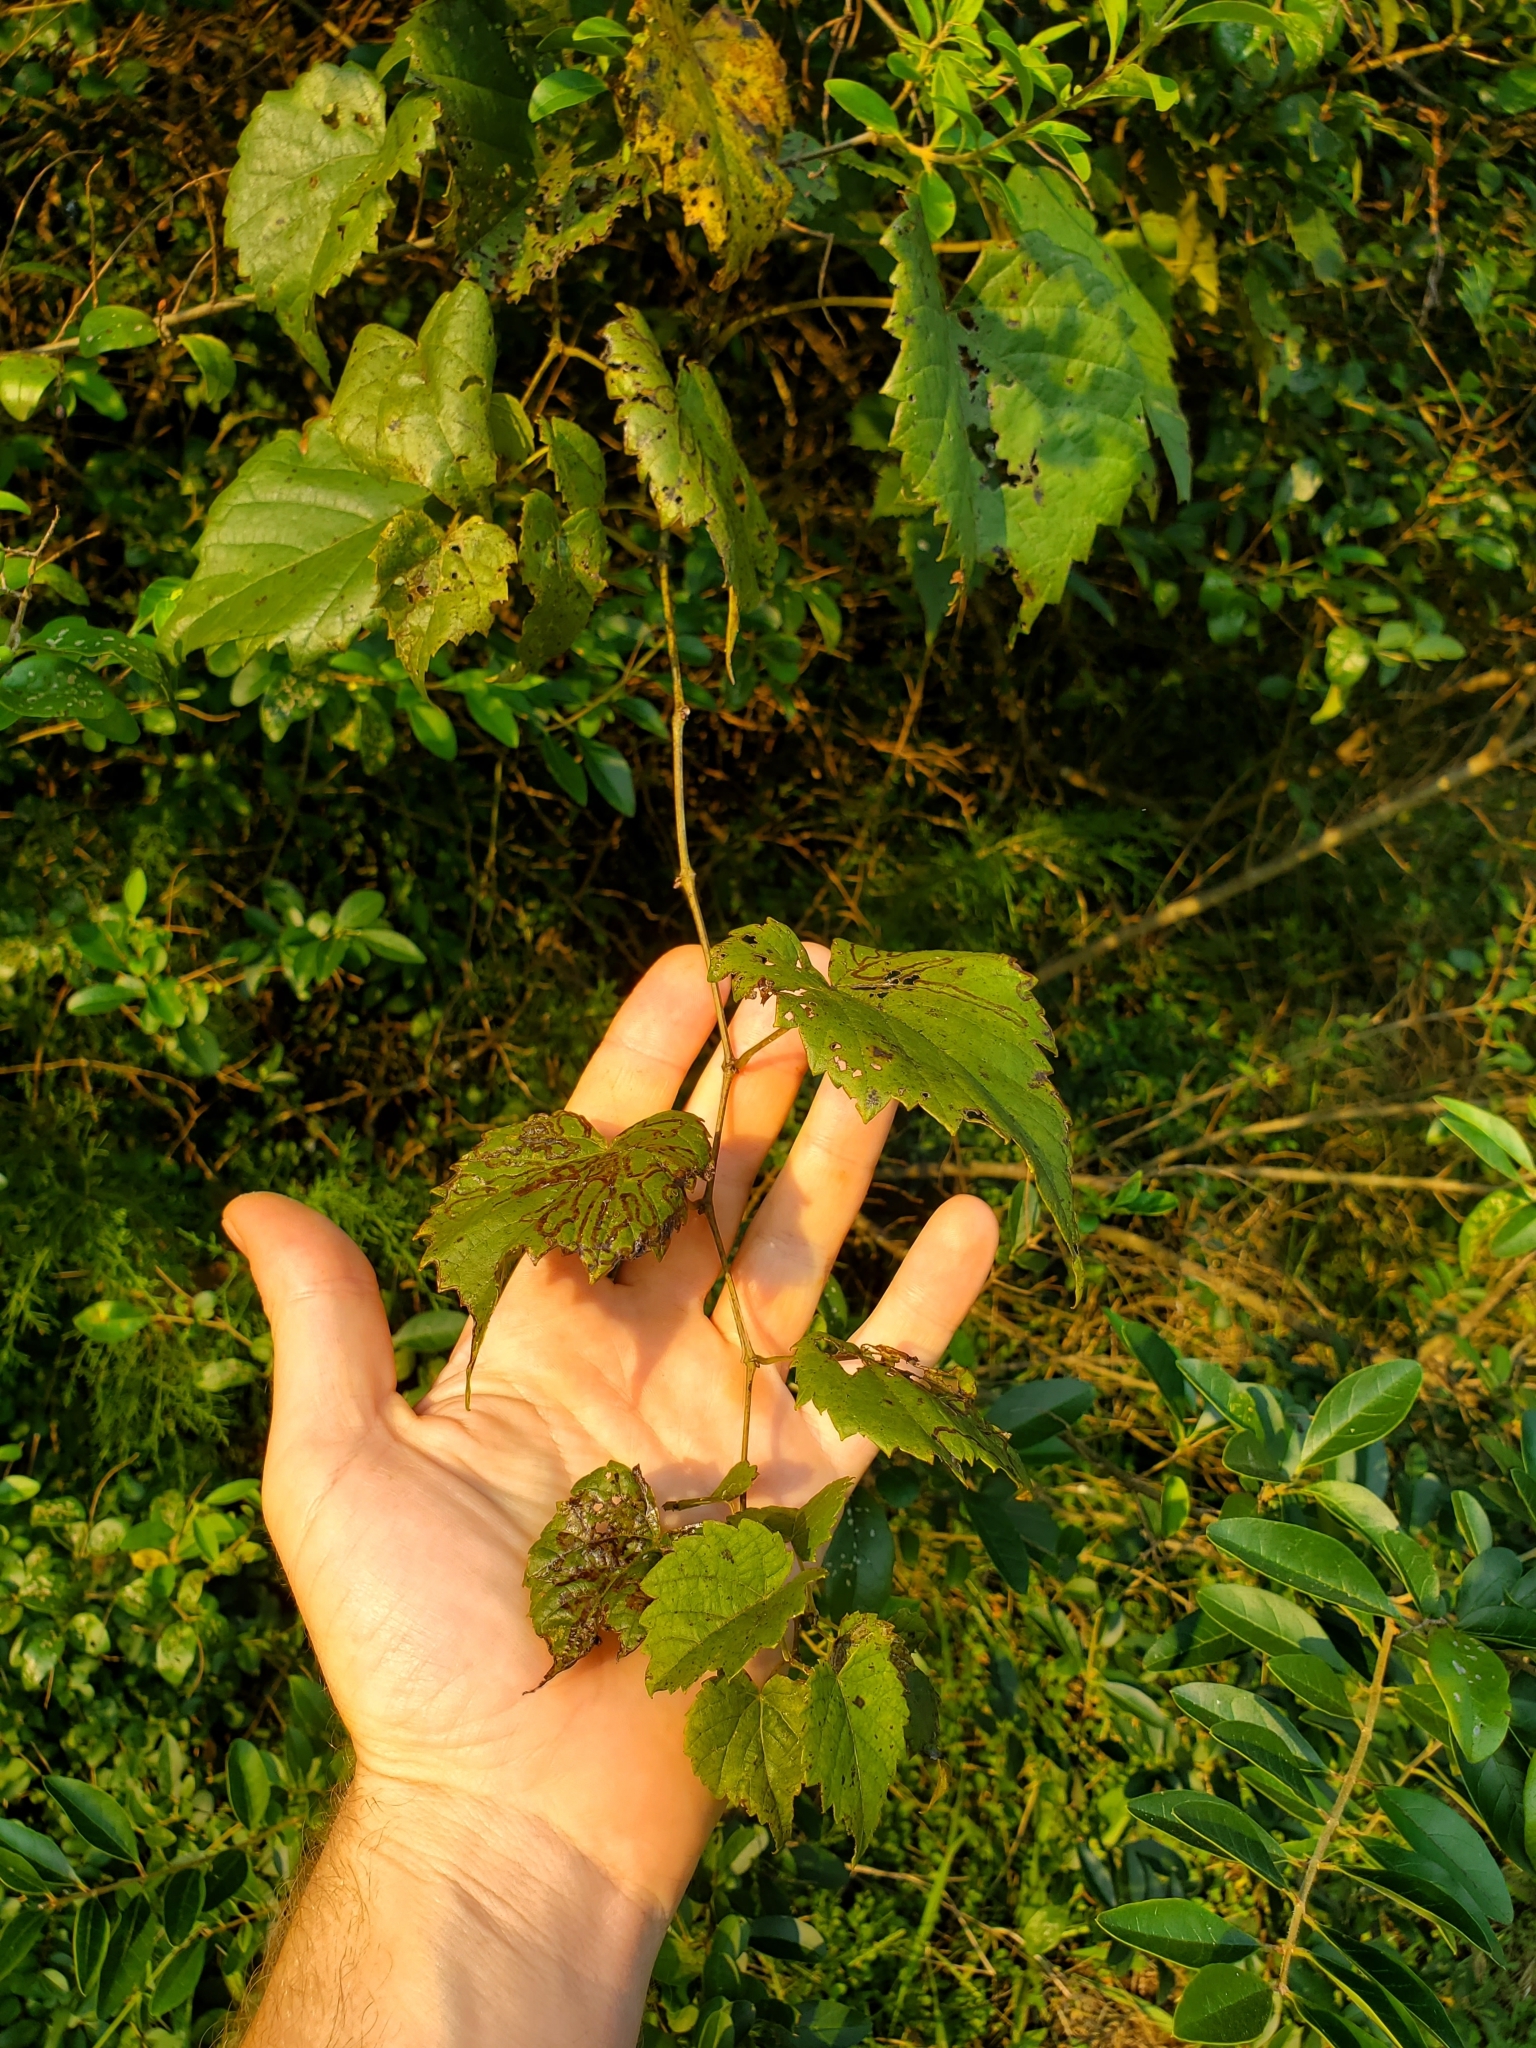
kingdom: Animalia
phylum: Arthropoda
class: Insecta
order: Lepidoptera
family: Gracillariidae
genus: Phyllocnistis
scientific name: Phyllocnistis vitegenella
